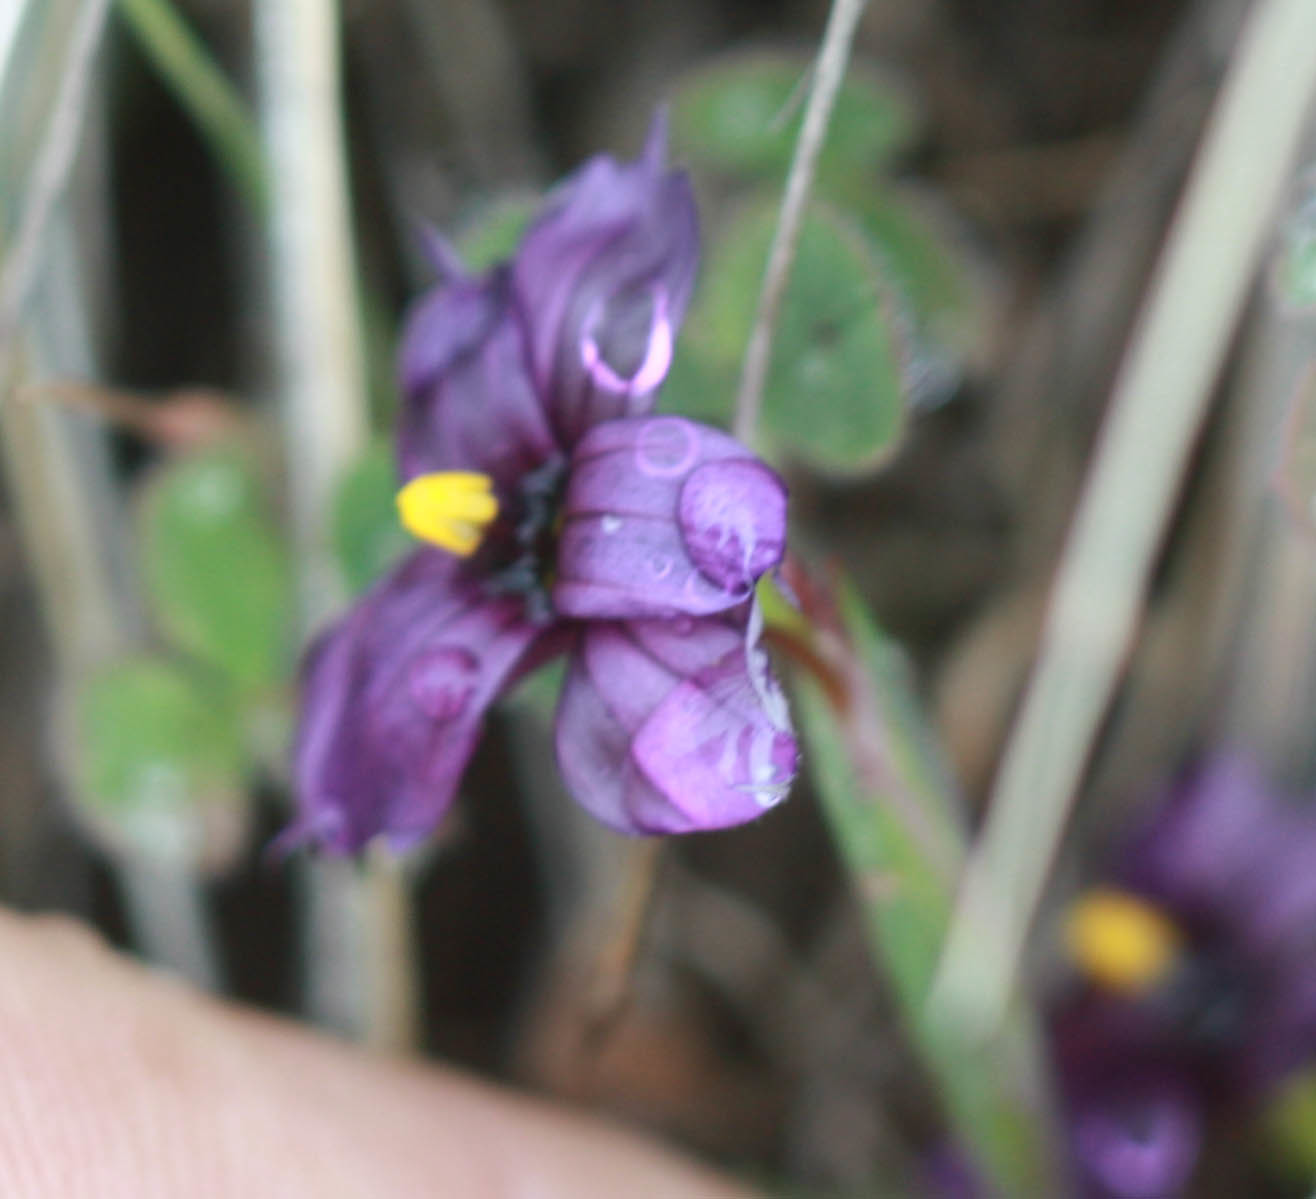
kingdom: Plantae
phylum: Tracheophyta
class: Liliopsida
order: Asparagales
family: Iridaceae
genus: Sisyrinchium
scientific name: Sisyrinchium bellum
